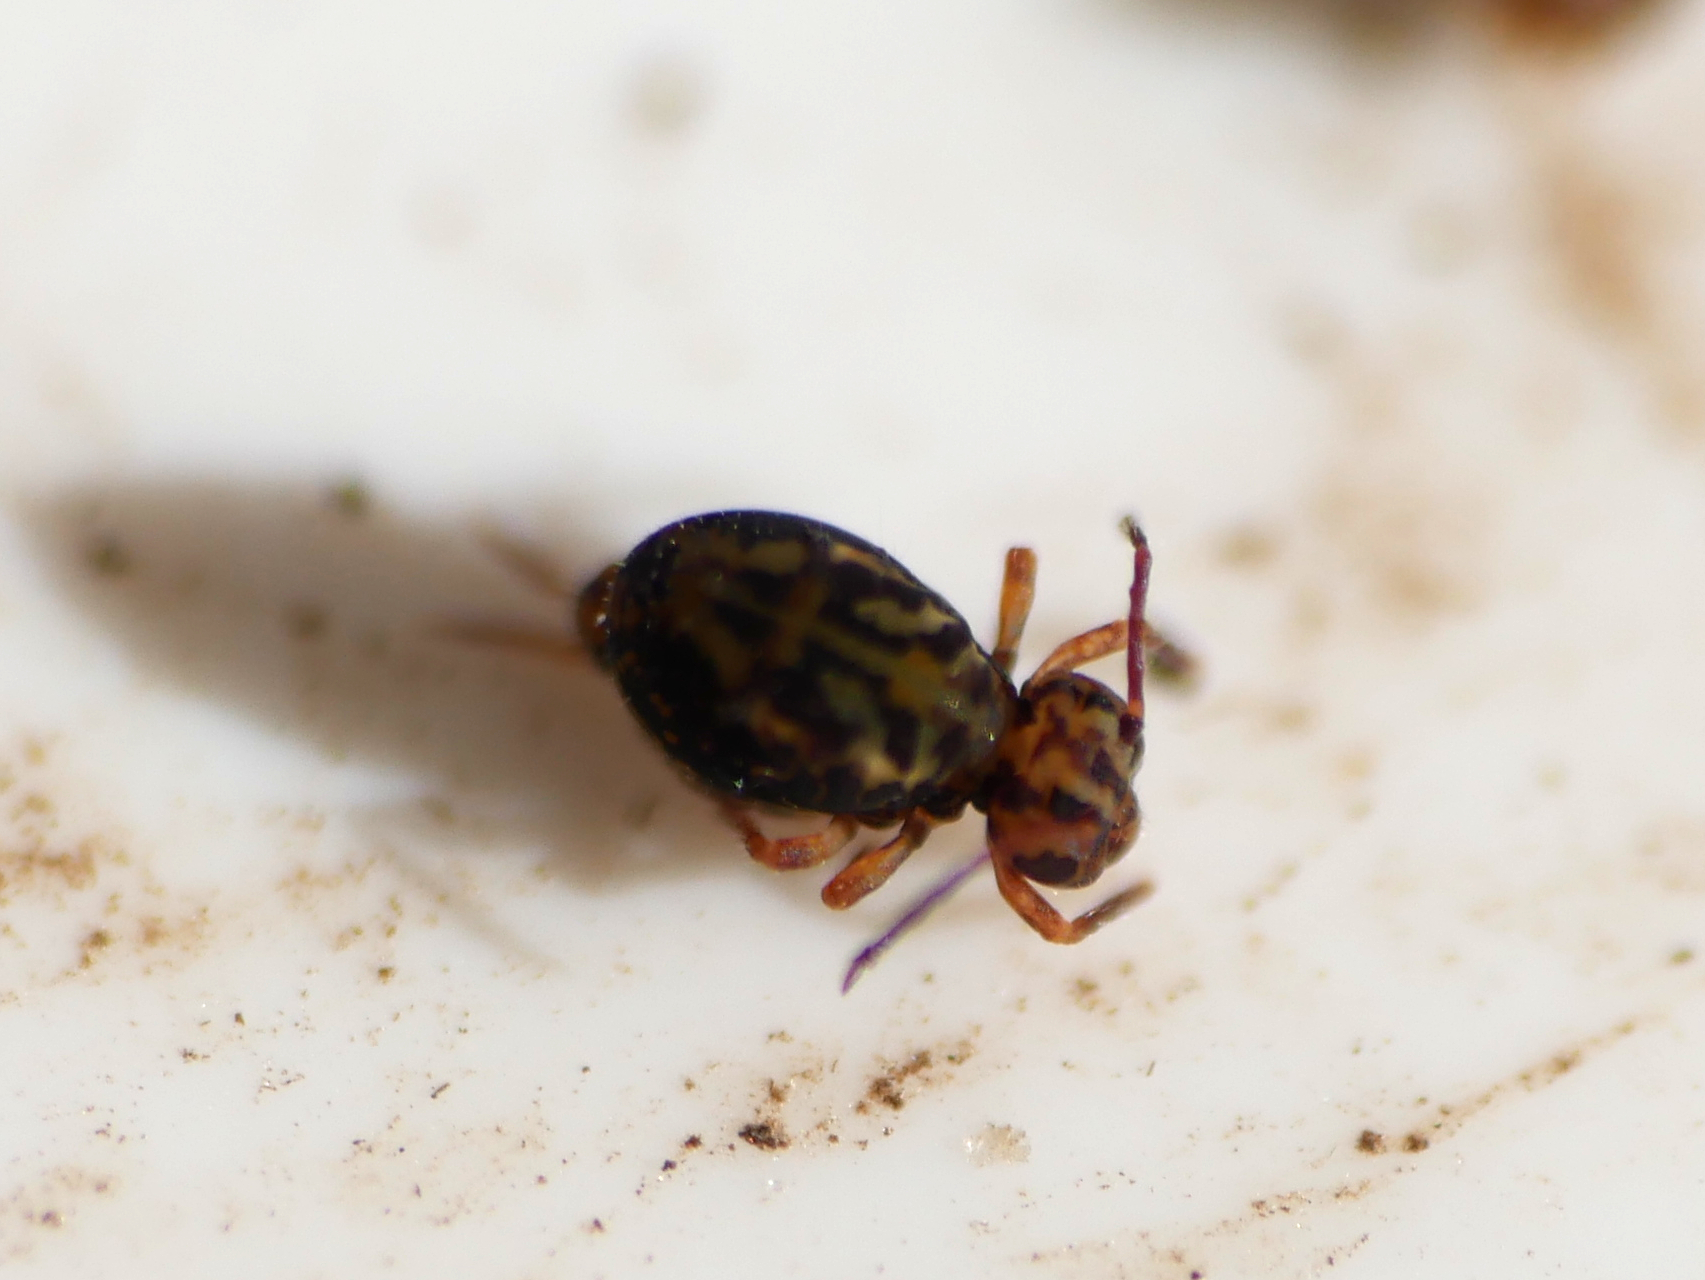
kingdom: Animalia
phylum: Arthropoda
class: Collembola
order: Symphypleona
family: Dicyrtomidae
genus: Dicyrtomina
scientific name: Dicyrtomina saundersi
